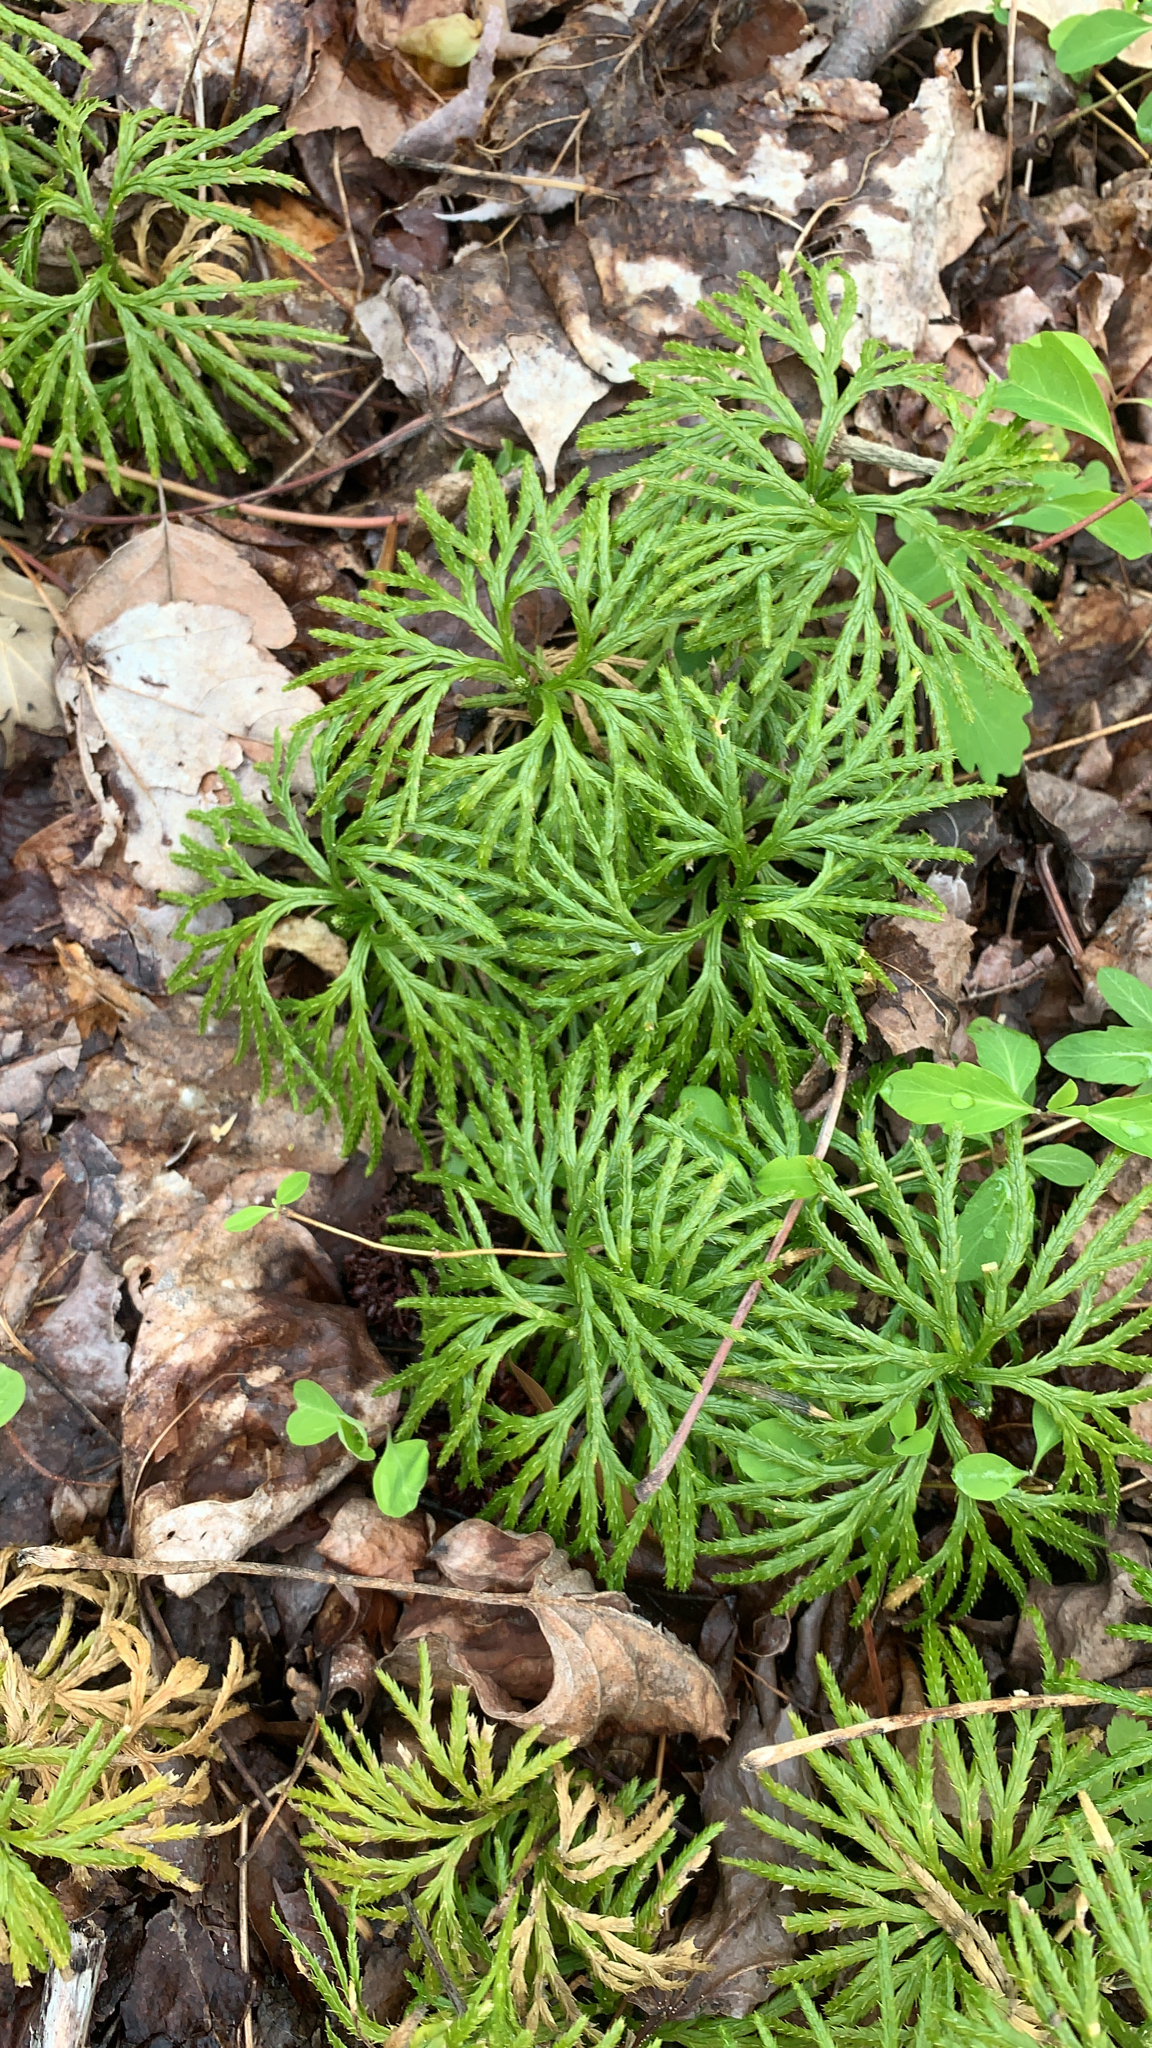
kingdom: Plantae
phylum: Tracheophyta
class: Lycopodiopsida
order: Lycopodiales
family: Lycopodiaceae
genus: Diphasiastrum
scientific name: Diphasiastrum digitatum
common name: Southern running-pine
